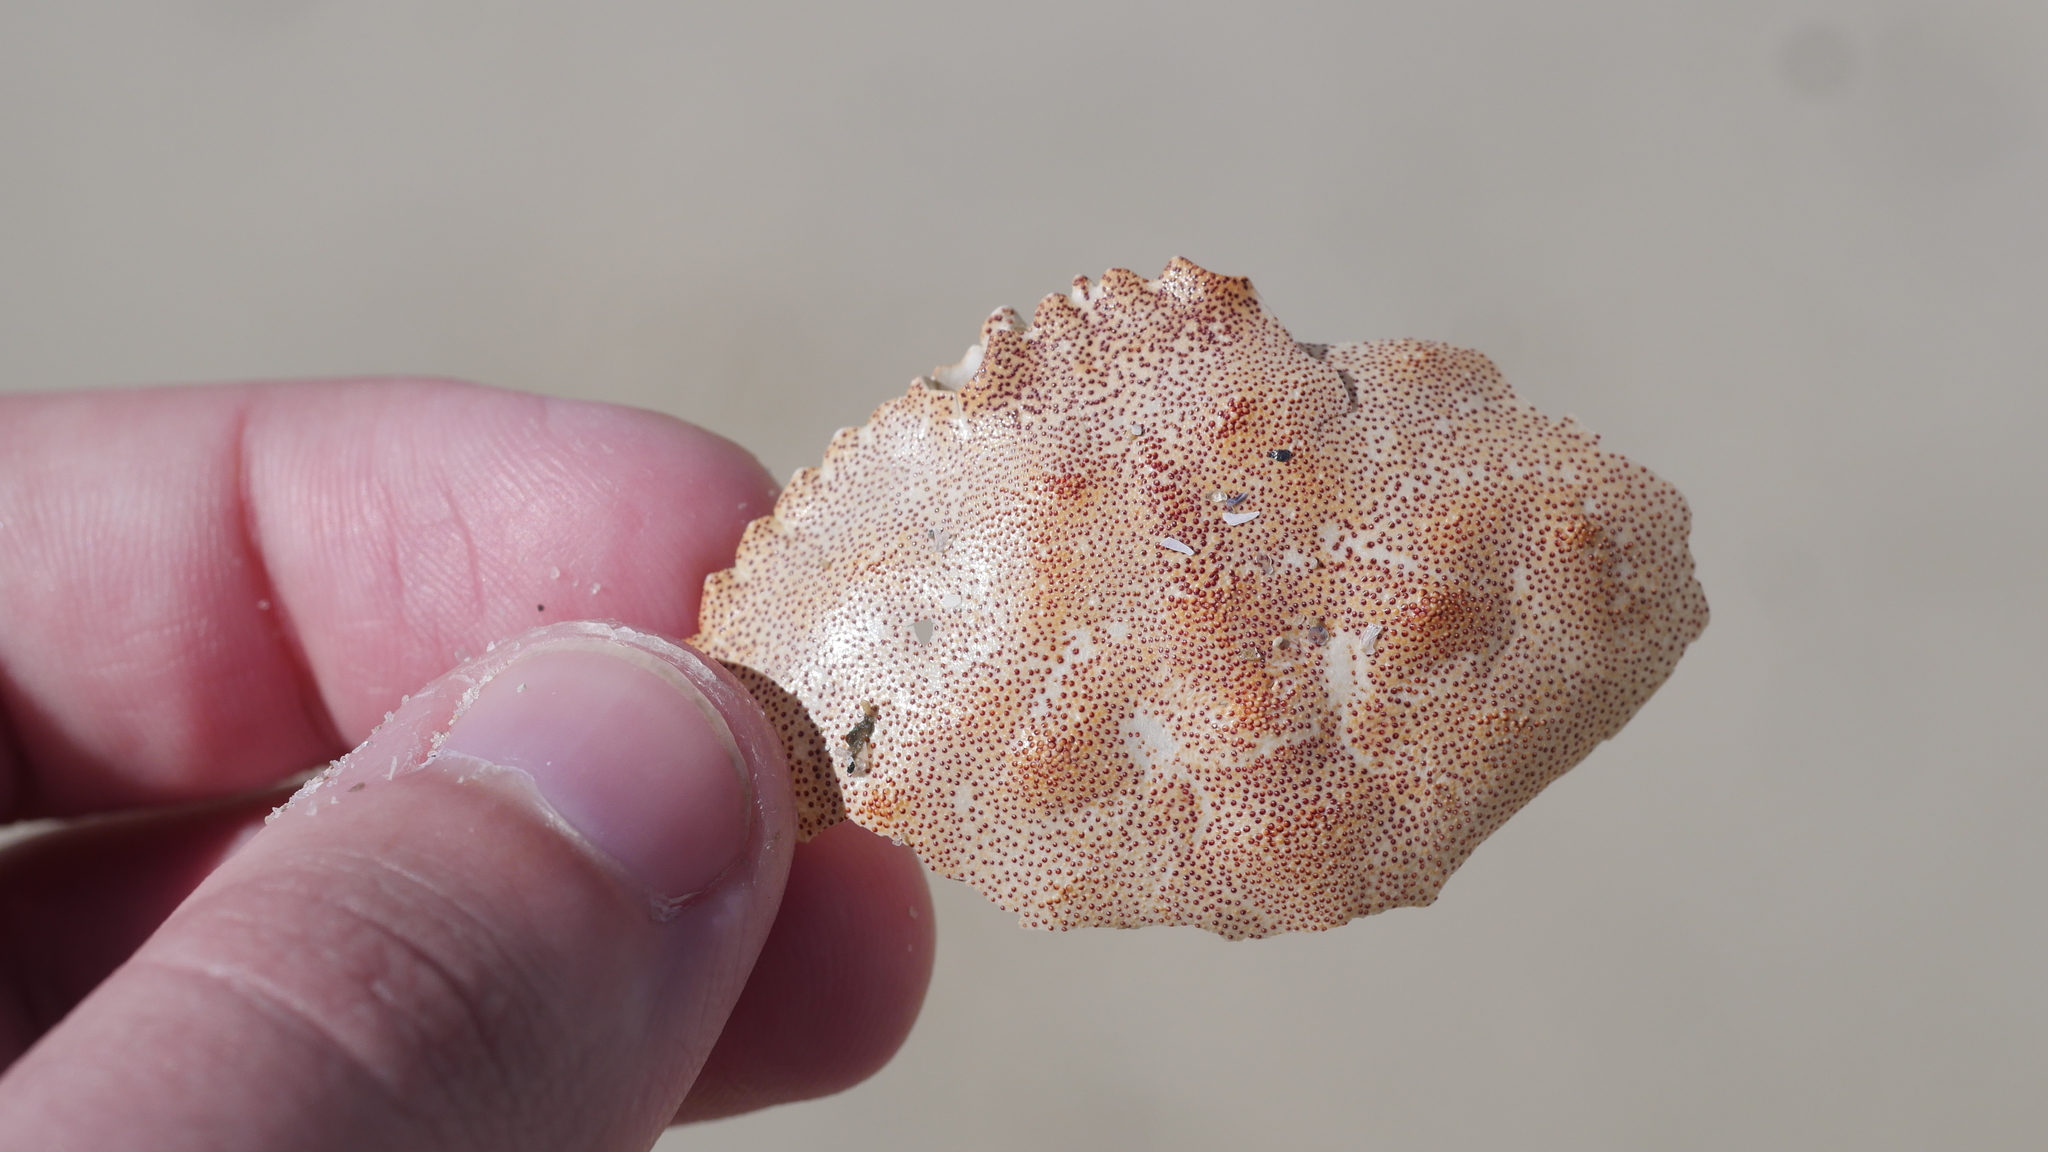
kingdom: Animalia
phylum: Arthropoda
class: Malacostraca
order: Decapoda
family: Cancridae
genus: Cancer
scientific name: Cancer irroratus
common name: Atlantic rock crab
